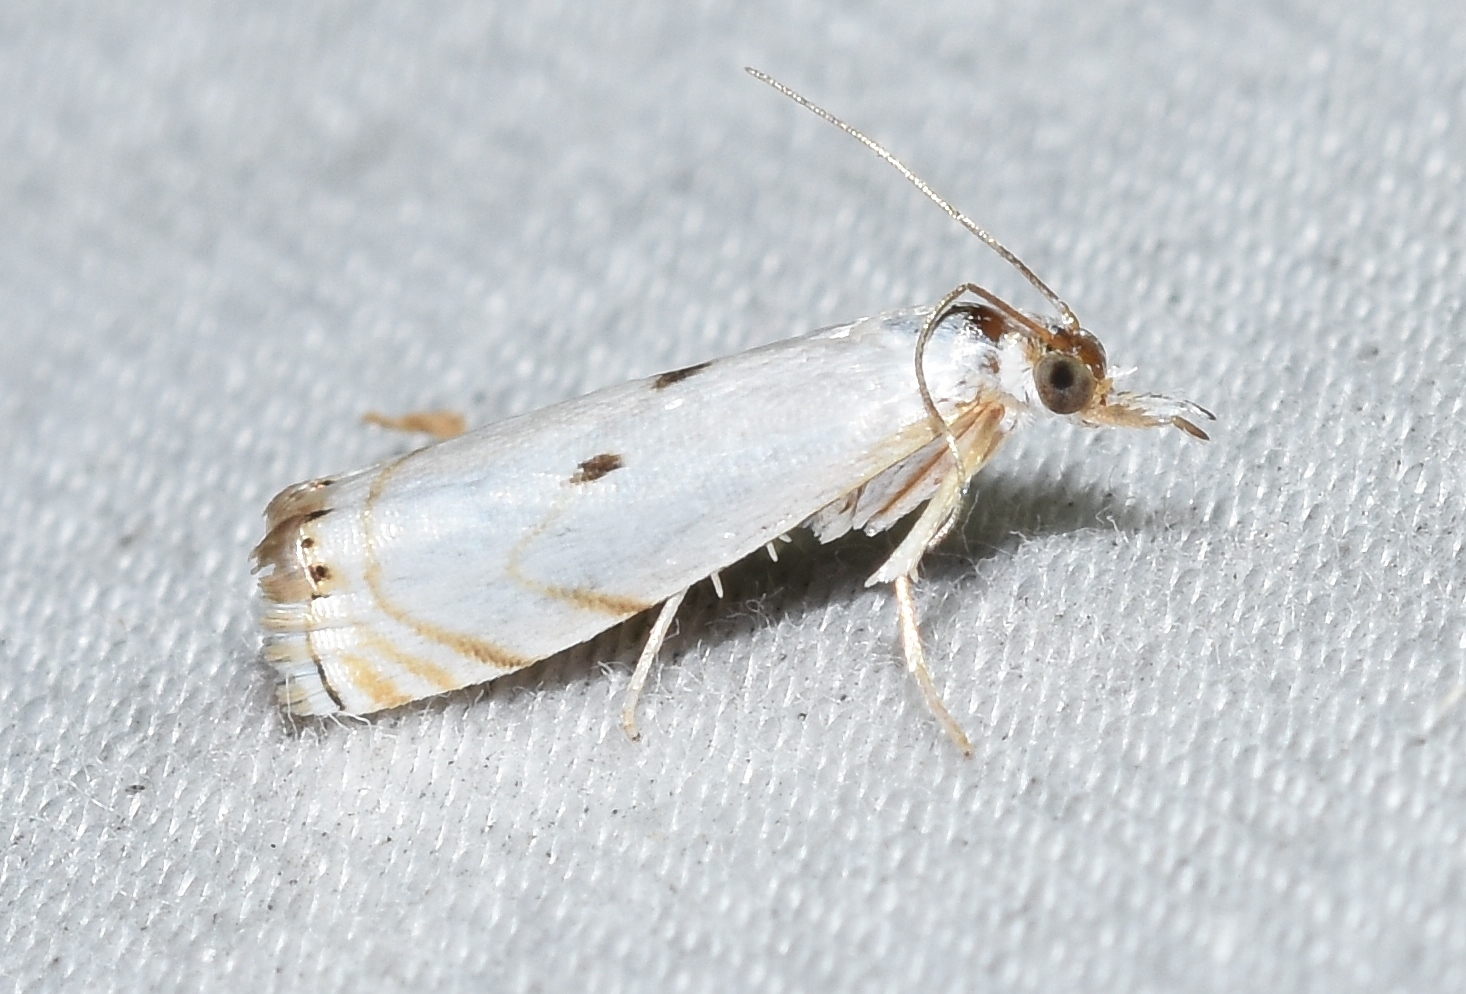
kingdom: Animalia
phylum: Arthropoda
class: Insecta
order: Lepidoptera
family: Crambidae
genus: Microcrambus
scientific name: Microcrambus biguttellus
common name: Gold-stripe grass-veneer moth
